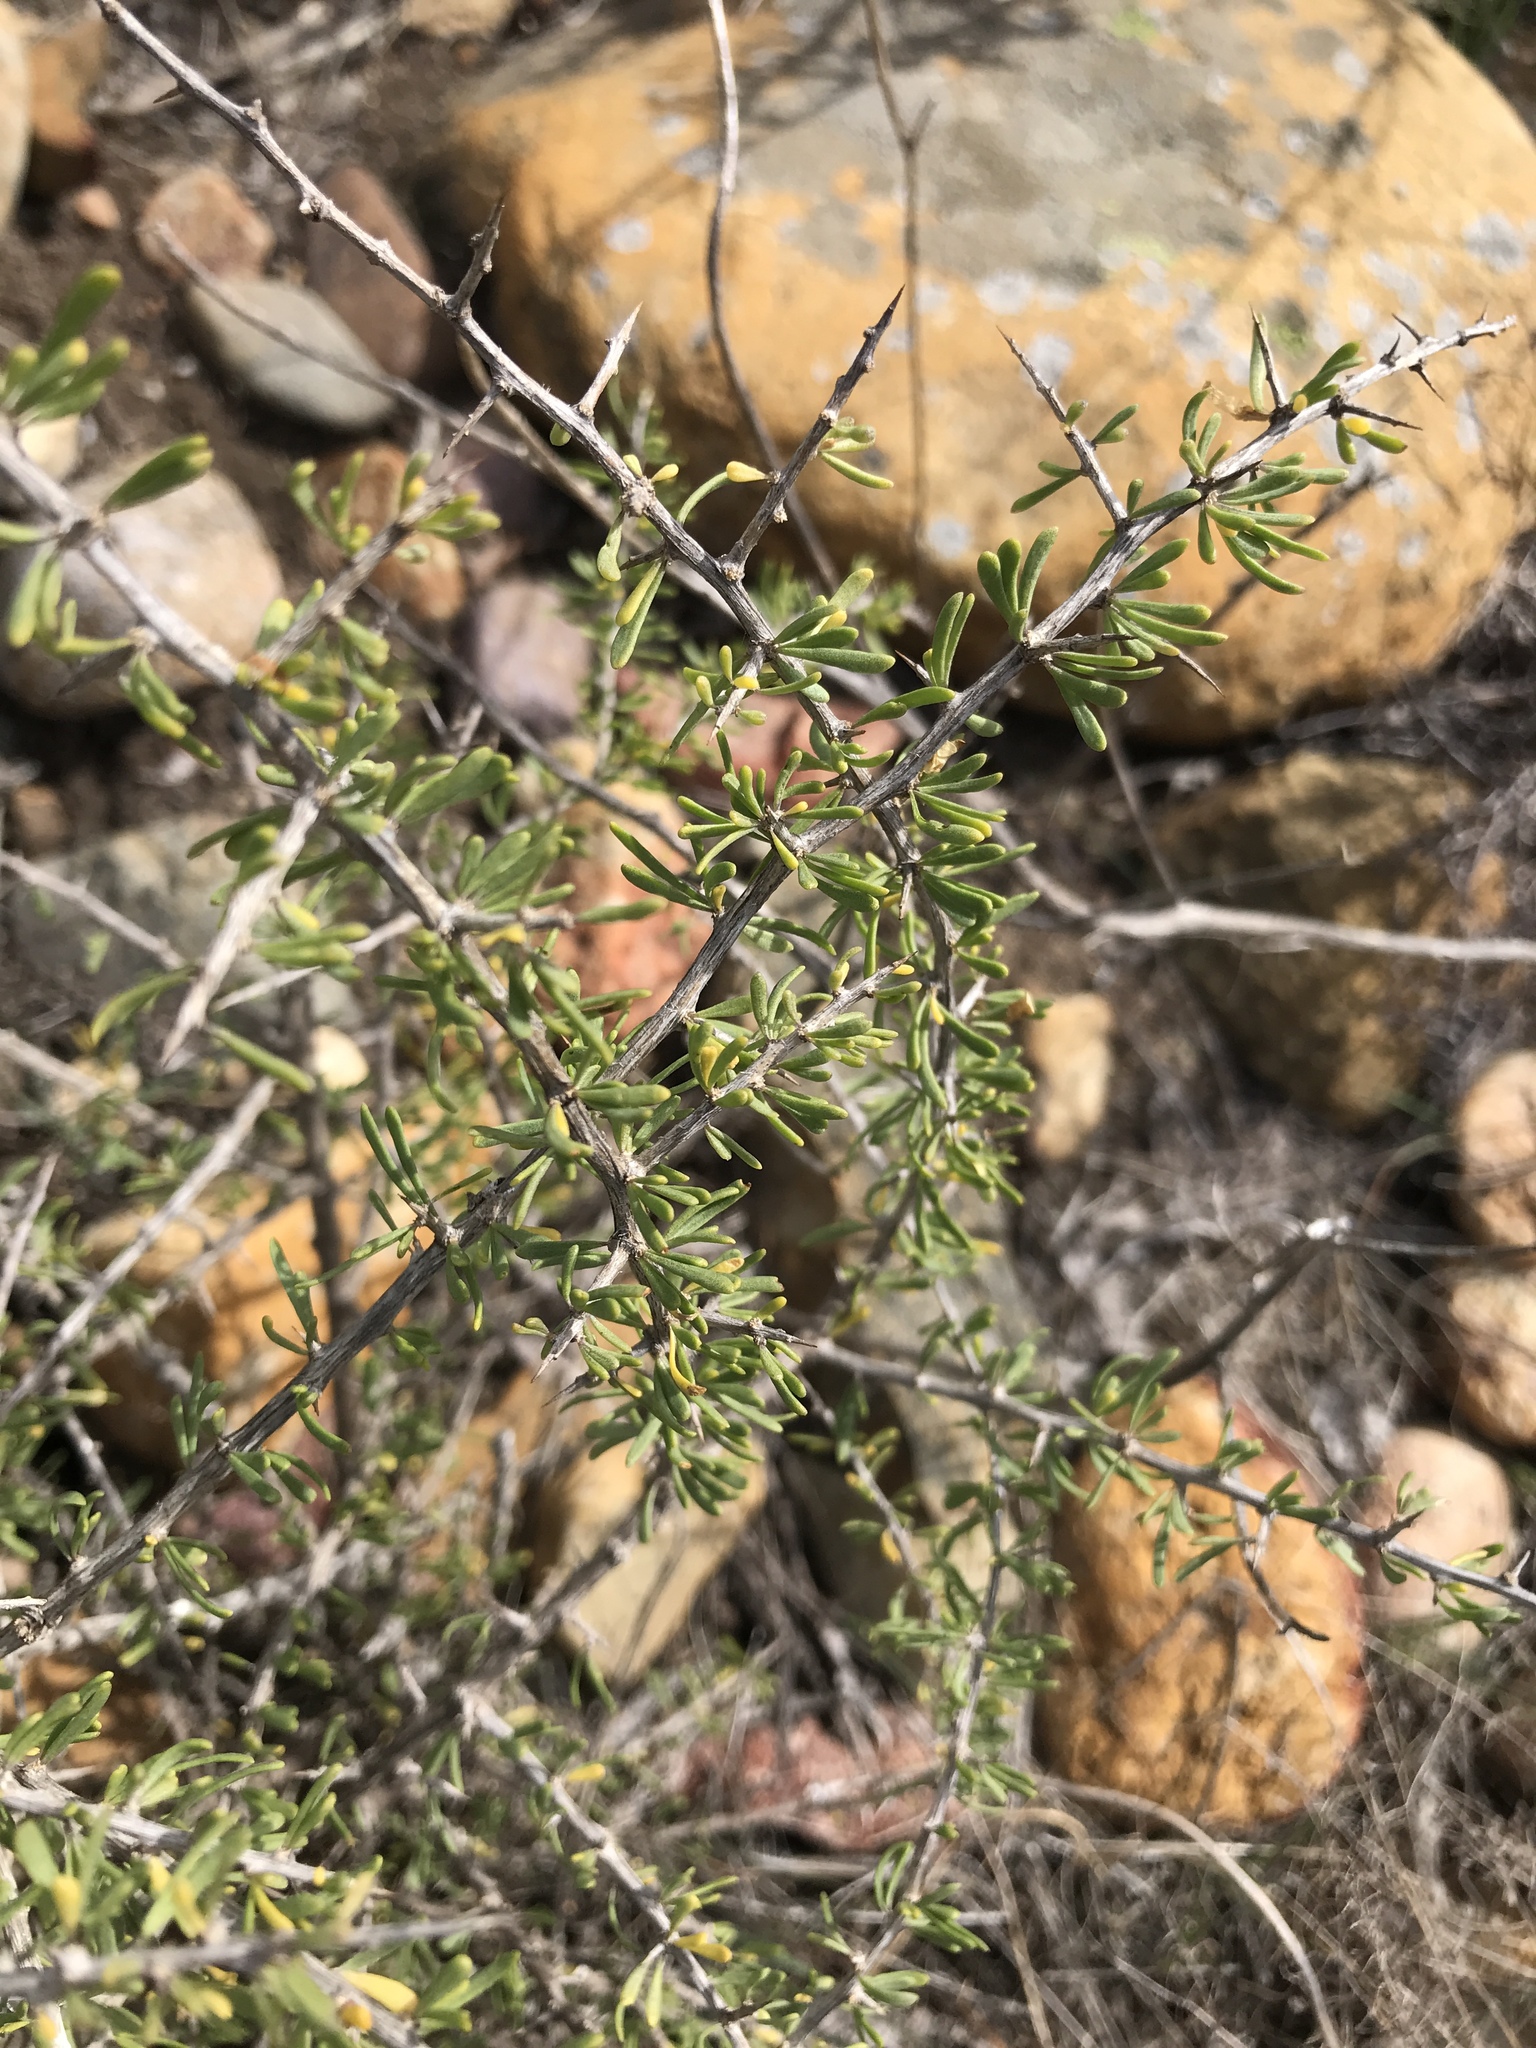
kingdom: Plantae
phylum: Tracheophyta
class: Magnoliopsida
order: Solanales
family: Solanaceae
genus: Lycium
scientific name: Lycium andersonii
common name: Water-jacket
